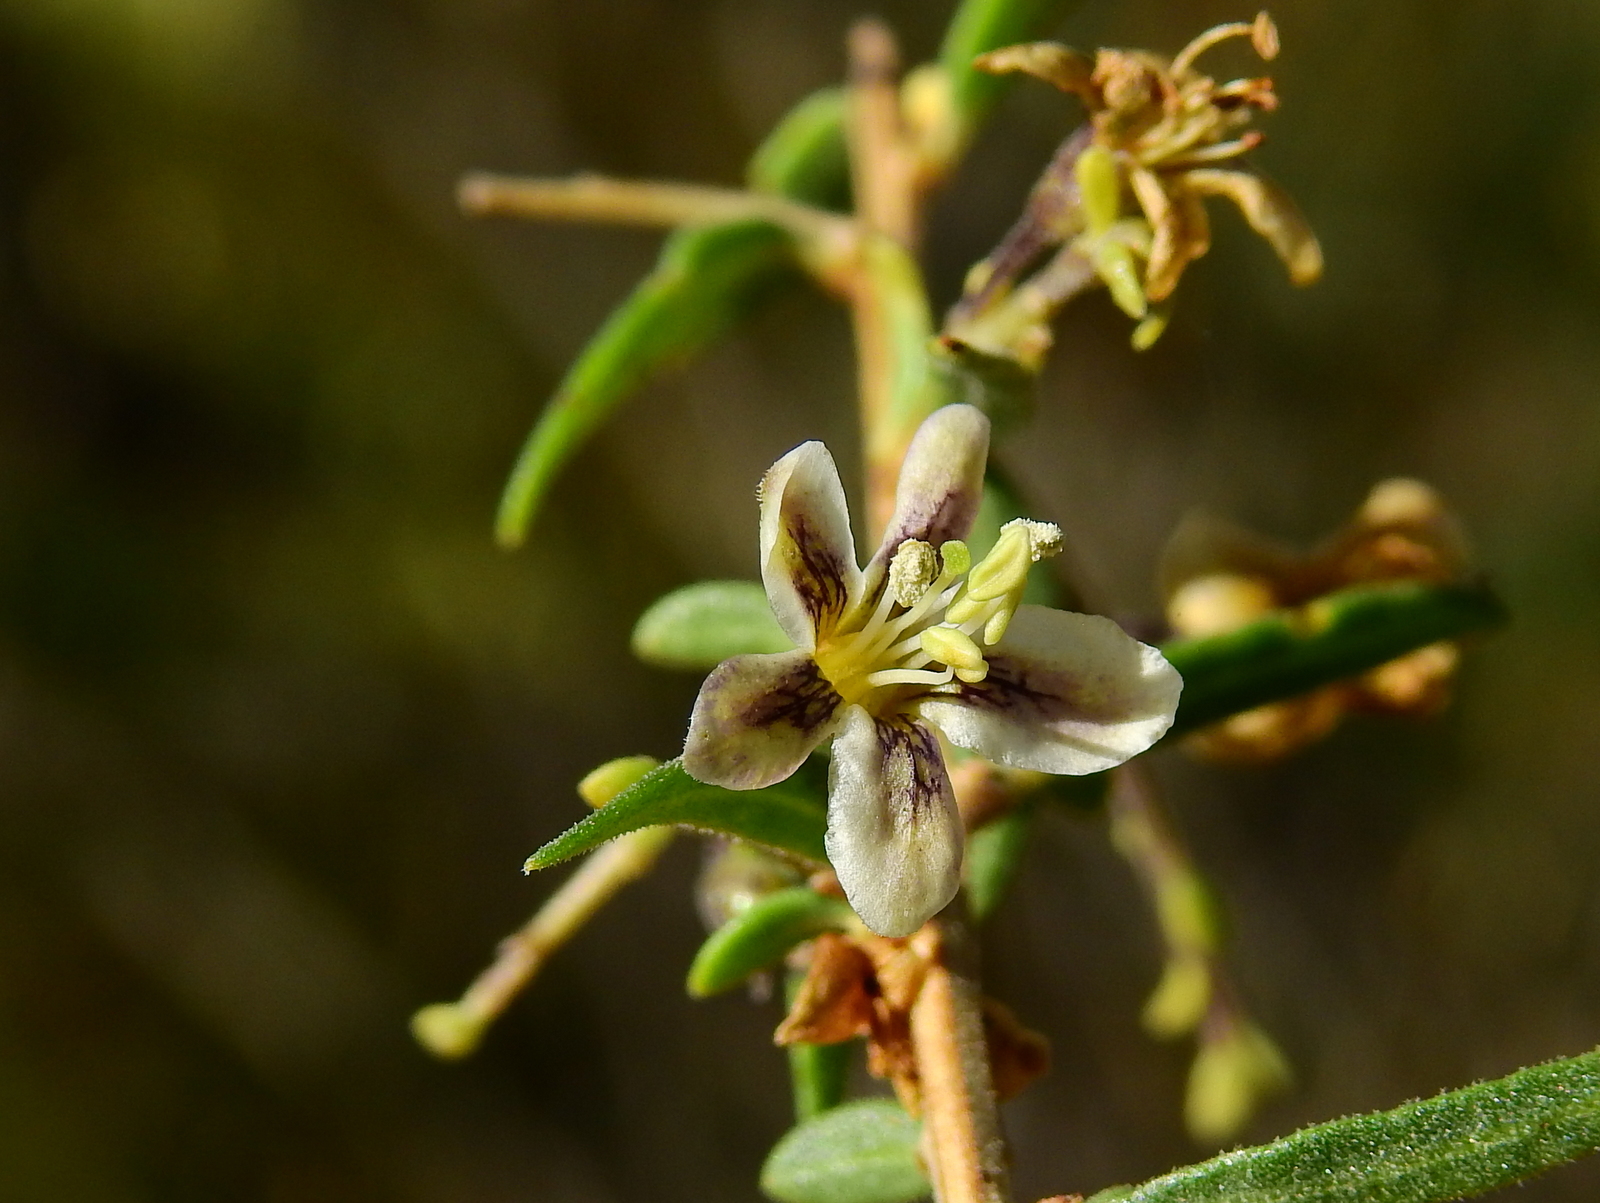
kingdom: Plantae
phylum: Tracheophyta
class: Magnoliopsida
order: Solanales
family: Solanaceae
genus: Lycium
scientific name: Lycium chilense
